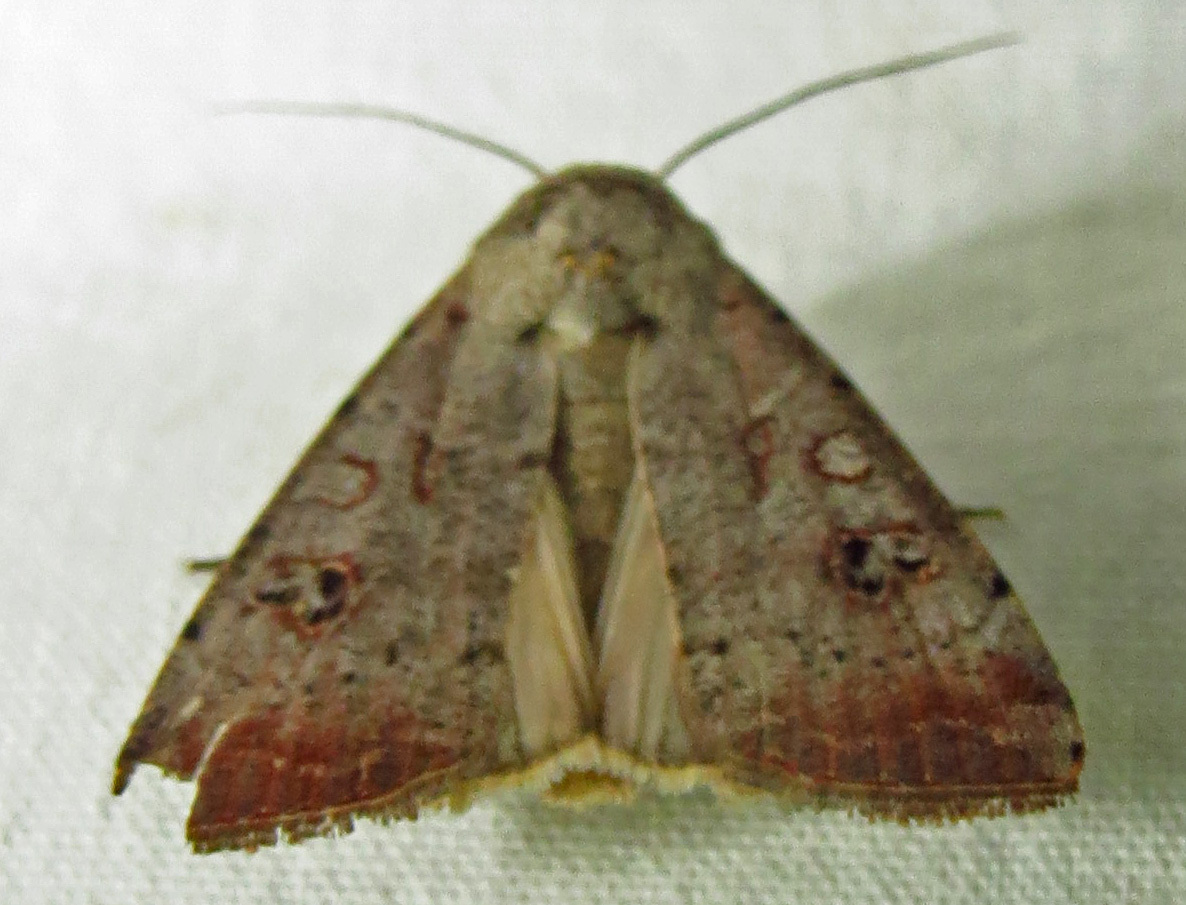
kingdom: Animalia
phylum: Arthropoda
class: Insecta
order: Lepidoptera
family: Noctuidae
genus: Anicla
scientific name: Anicla infecta
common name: Green cutworm
